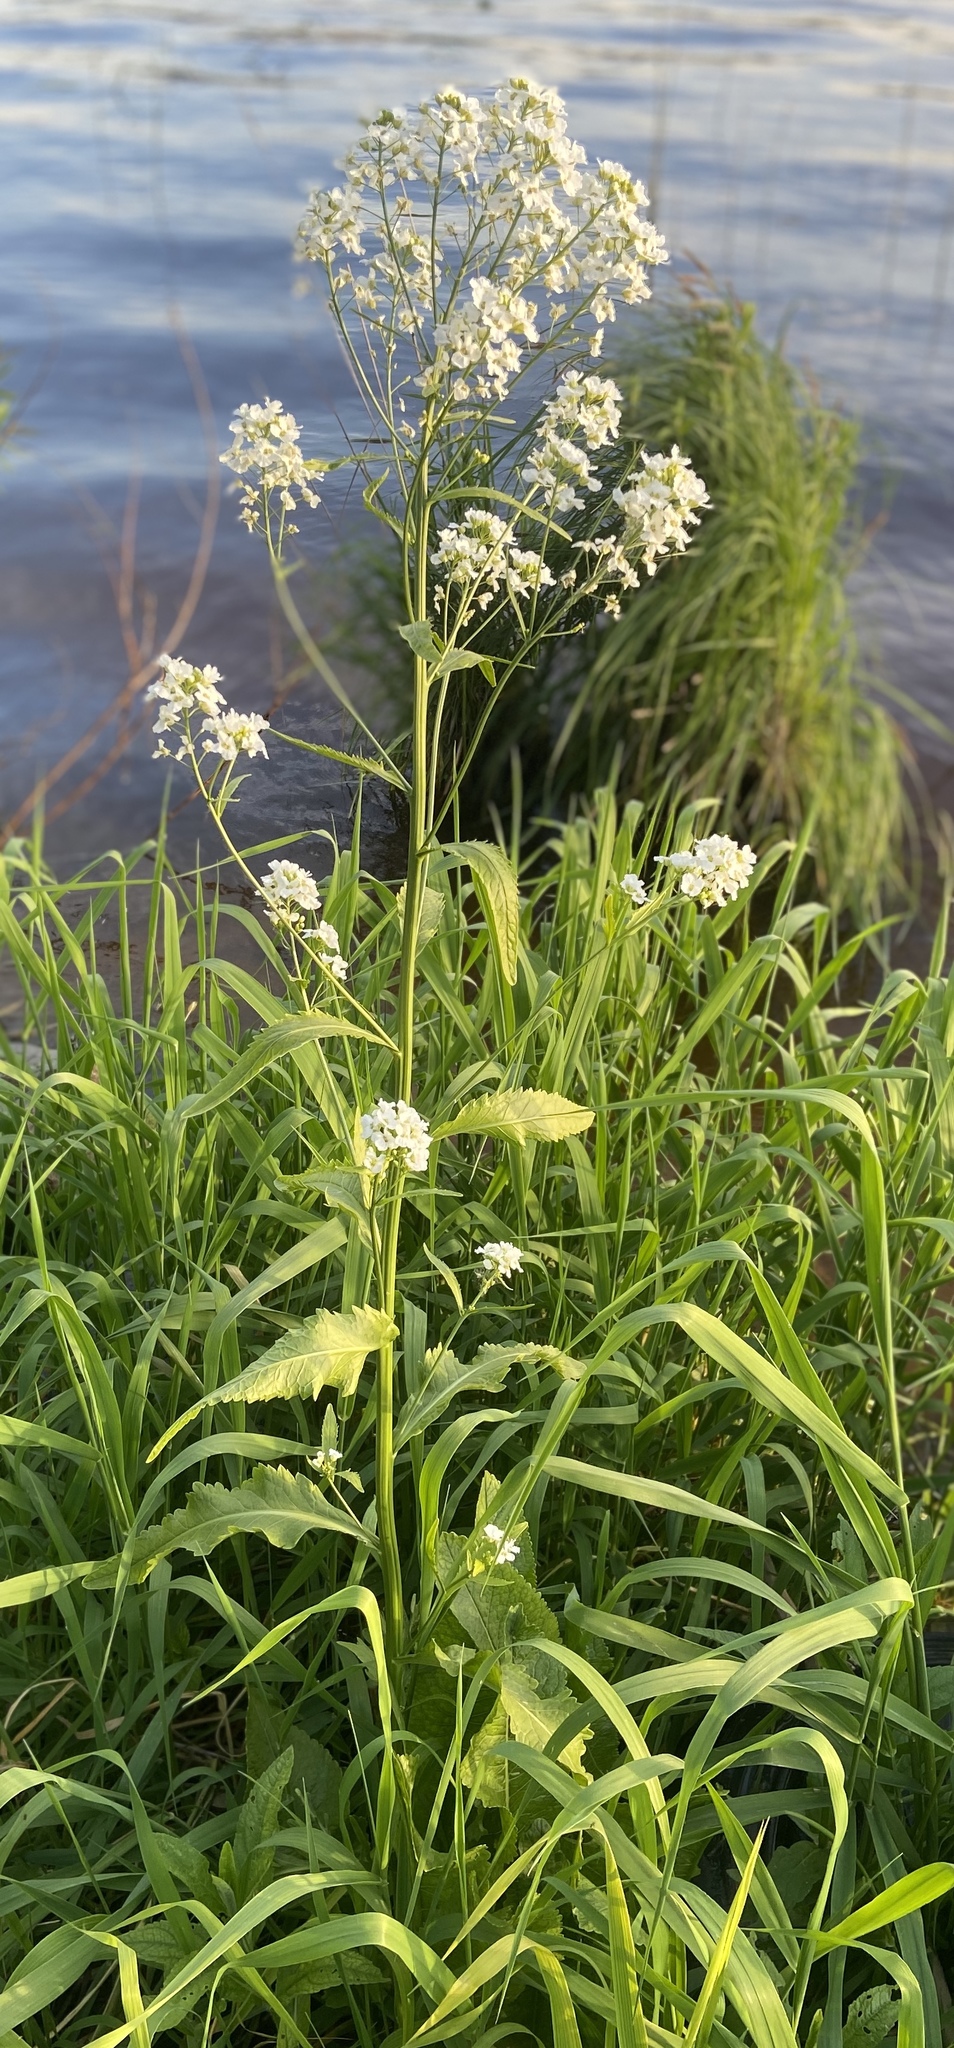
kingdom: Plantae
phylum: Tracheophyta
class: Magnoliopsida
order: Brassicales
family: Brassicaceae
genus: Armoracia
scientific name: Armoracia rusticana
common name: Horseradish
